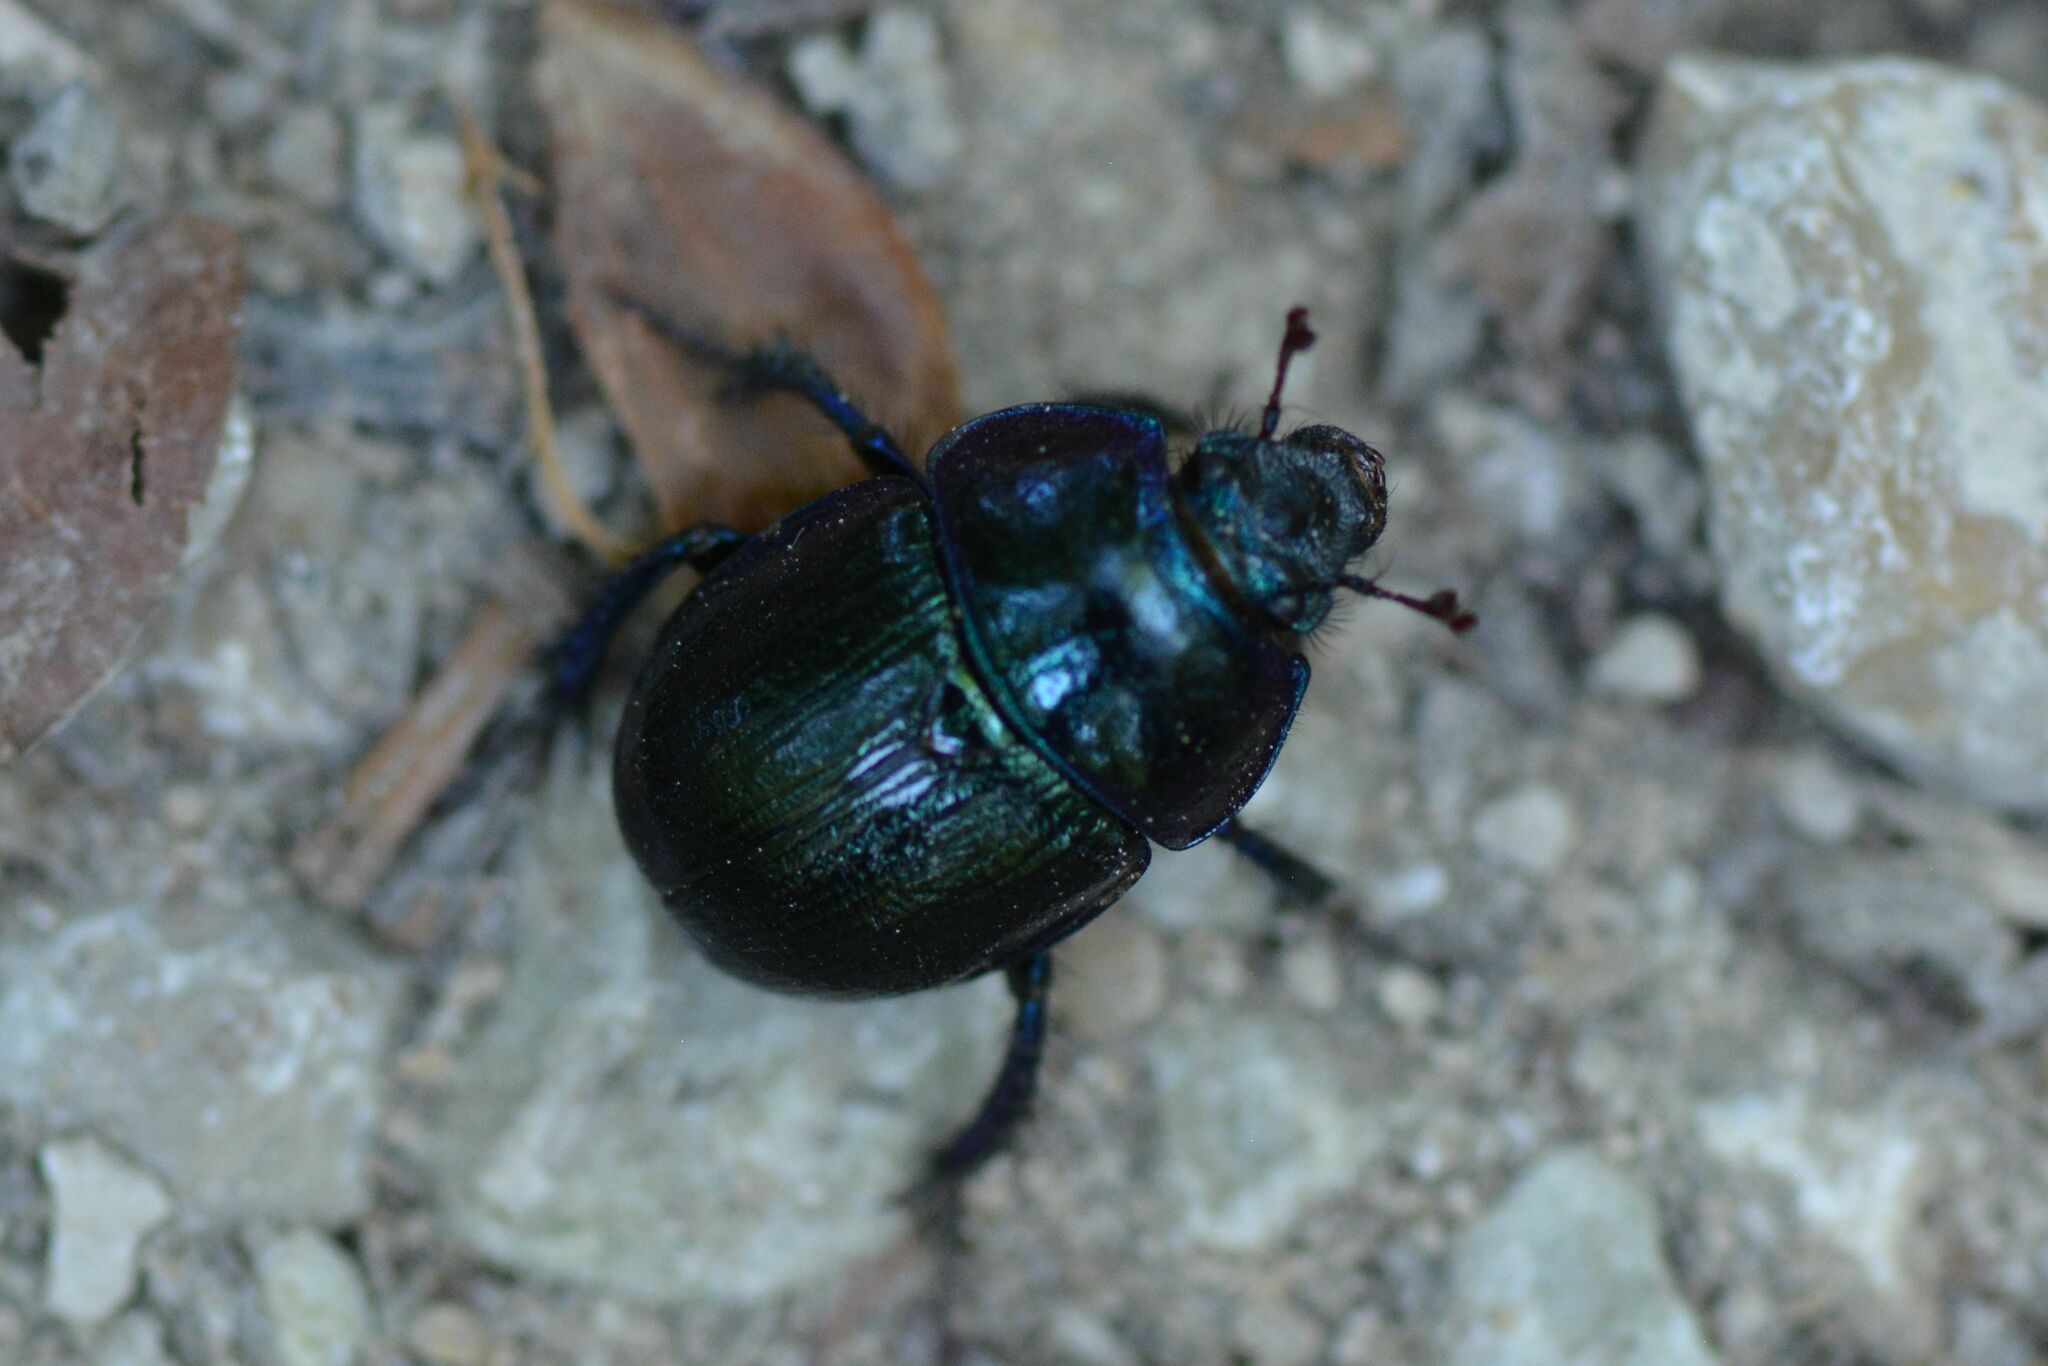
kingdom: Animalia
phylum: Arthropoda
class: Insecta
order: Coleoptera
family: Geotrupidae
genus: Anoplotrupes
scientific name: Anoplotrupes stercorosus
